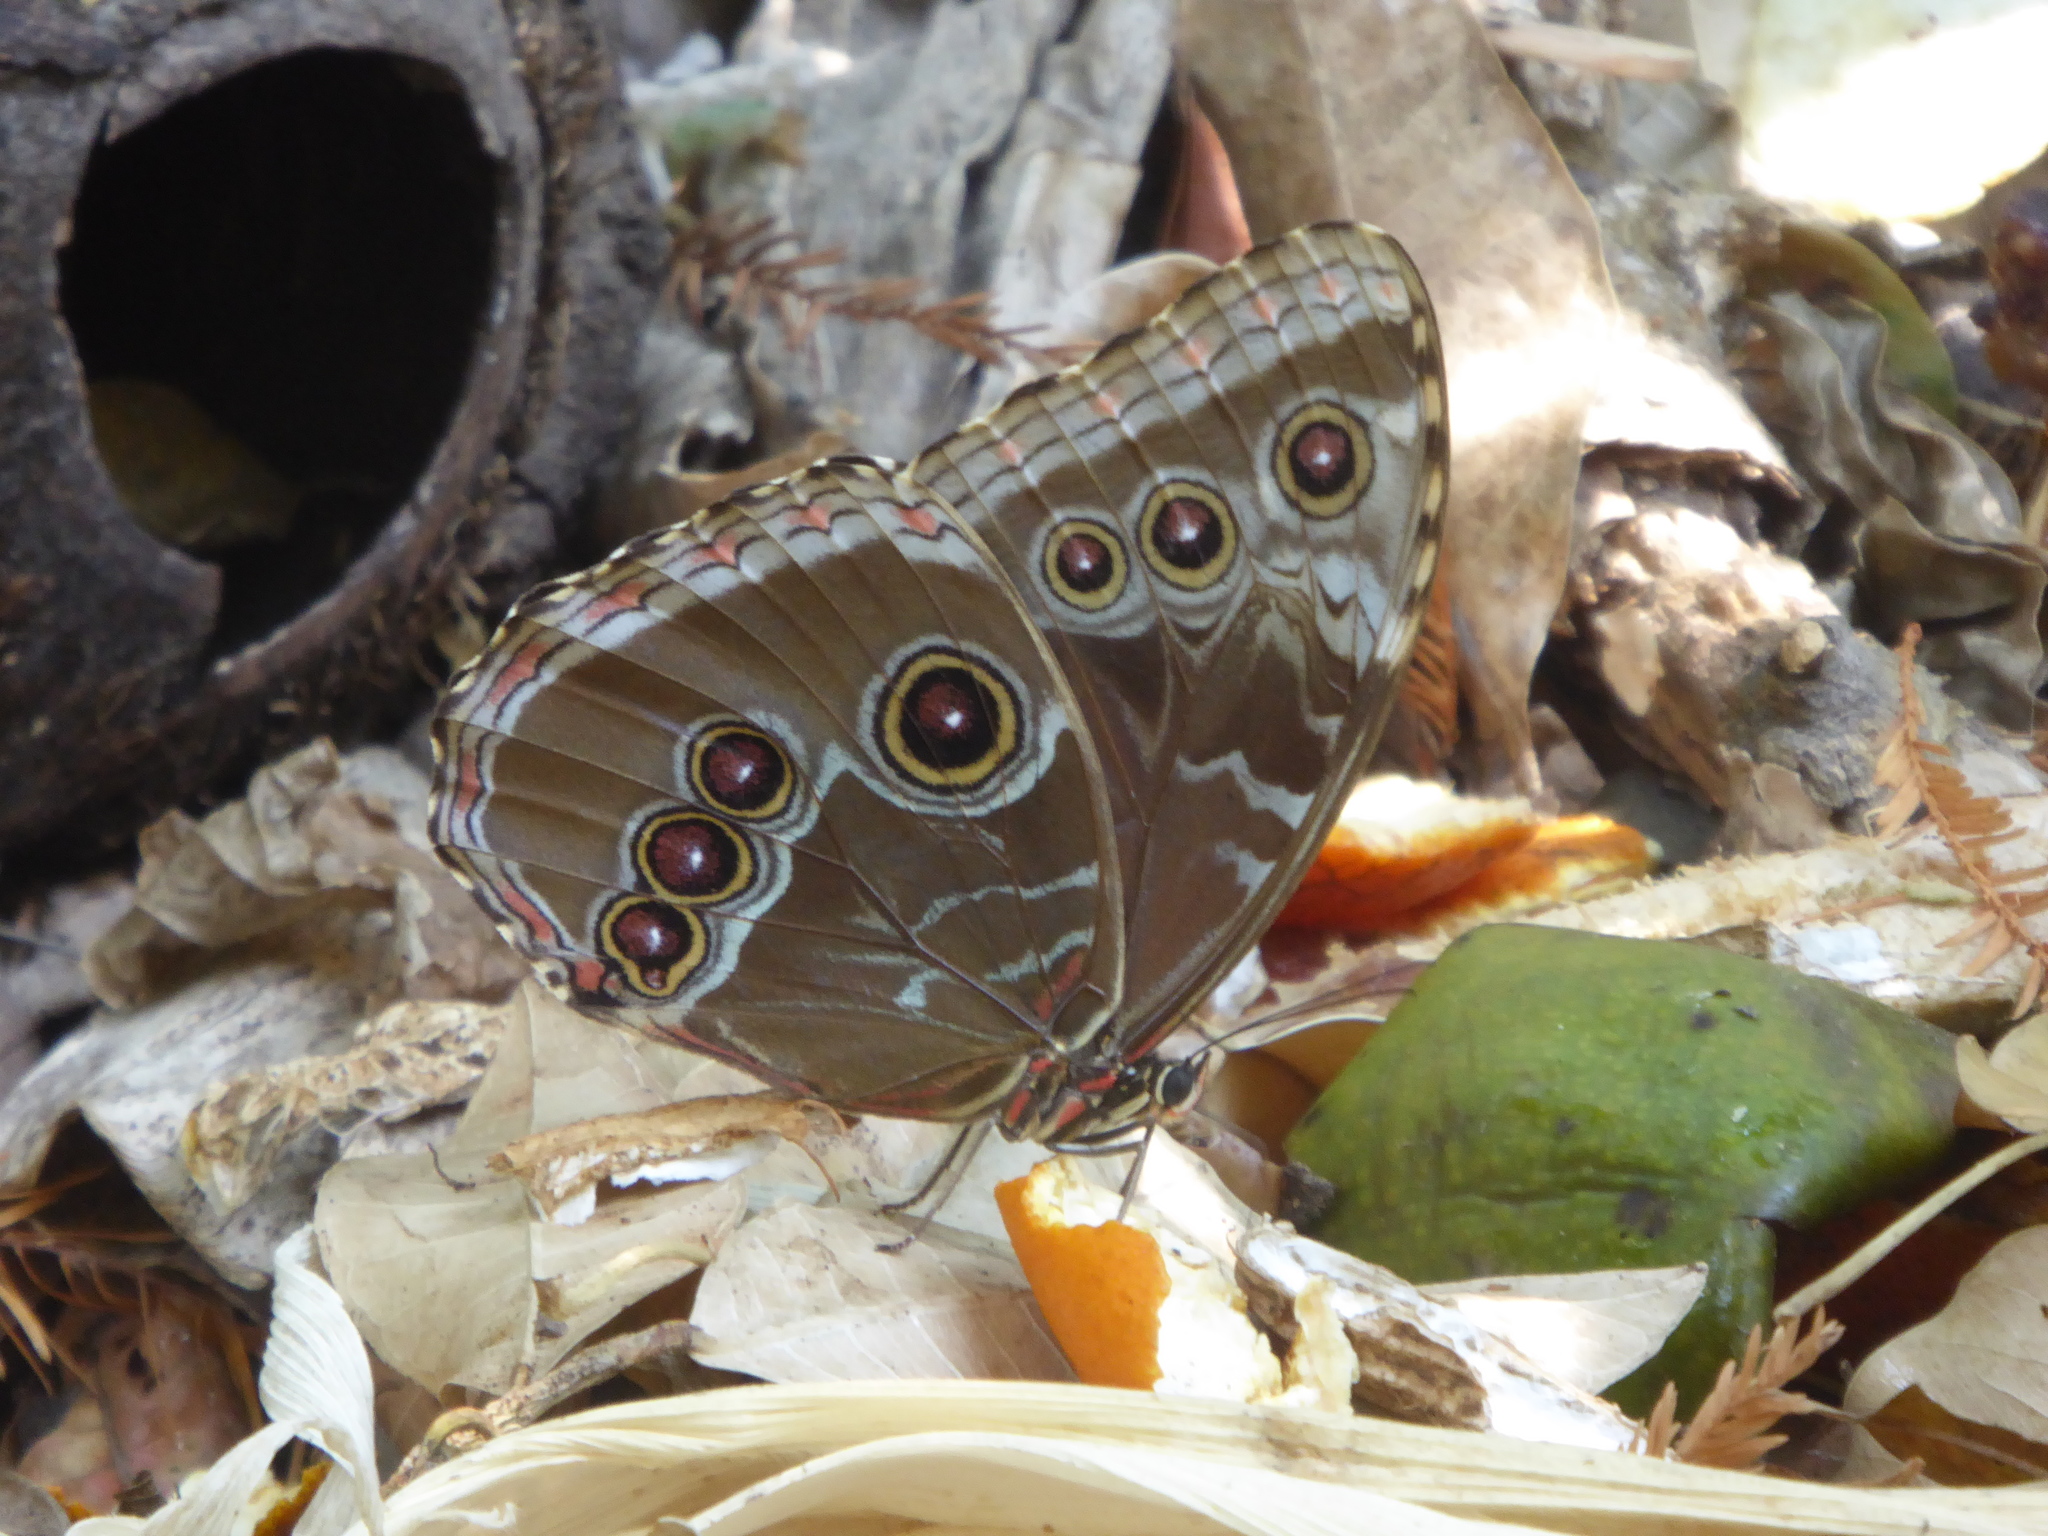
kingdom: Animalia
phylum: Arthropoda
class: Insecta
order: Lepidoptera
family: Nymphalidae
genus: Morpho
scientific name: Morpho helenor
